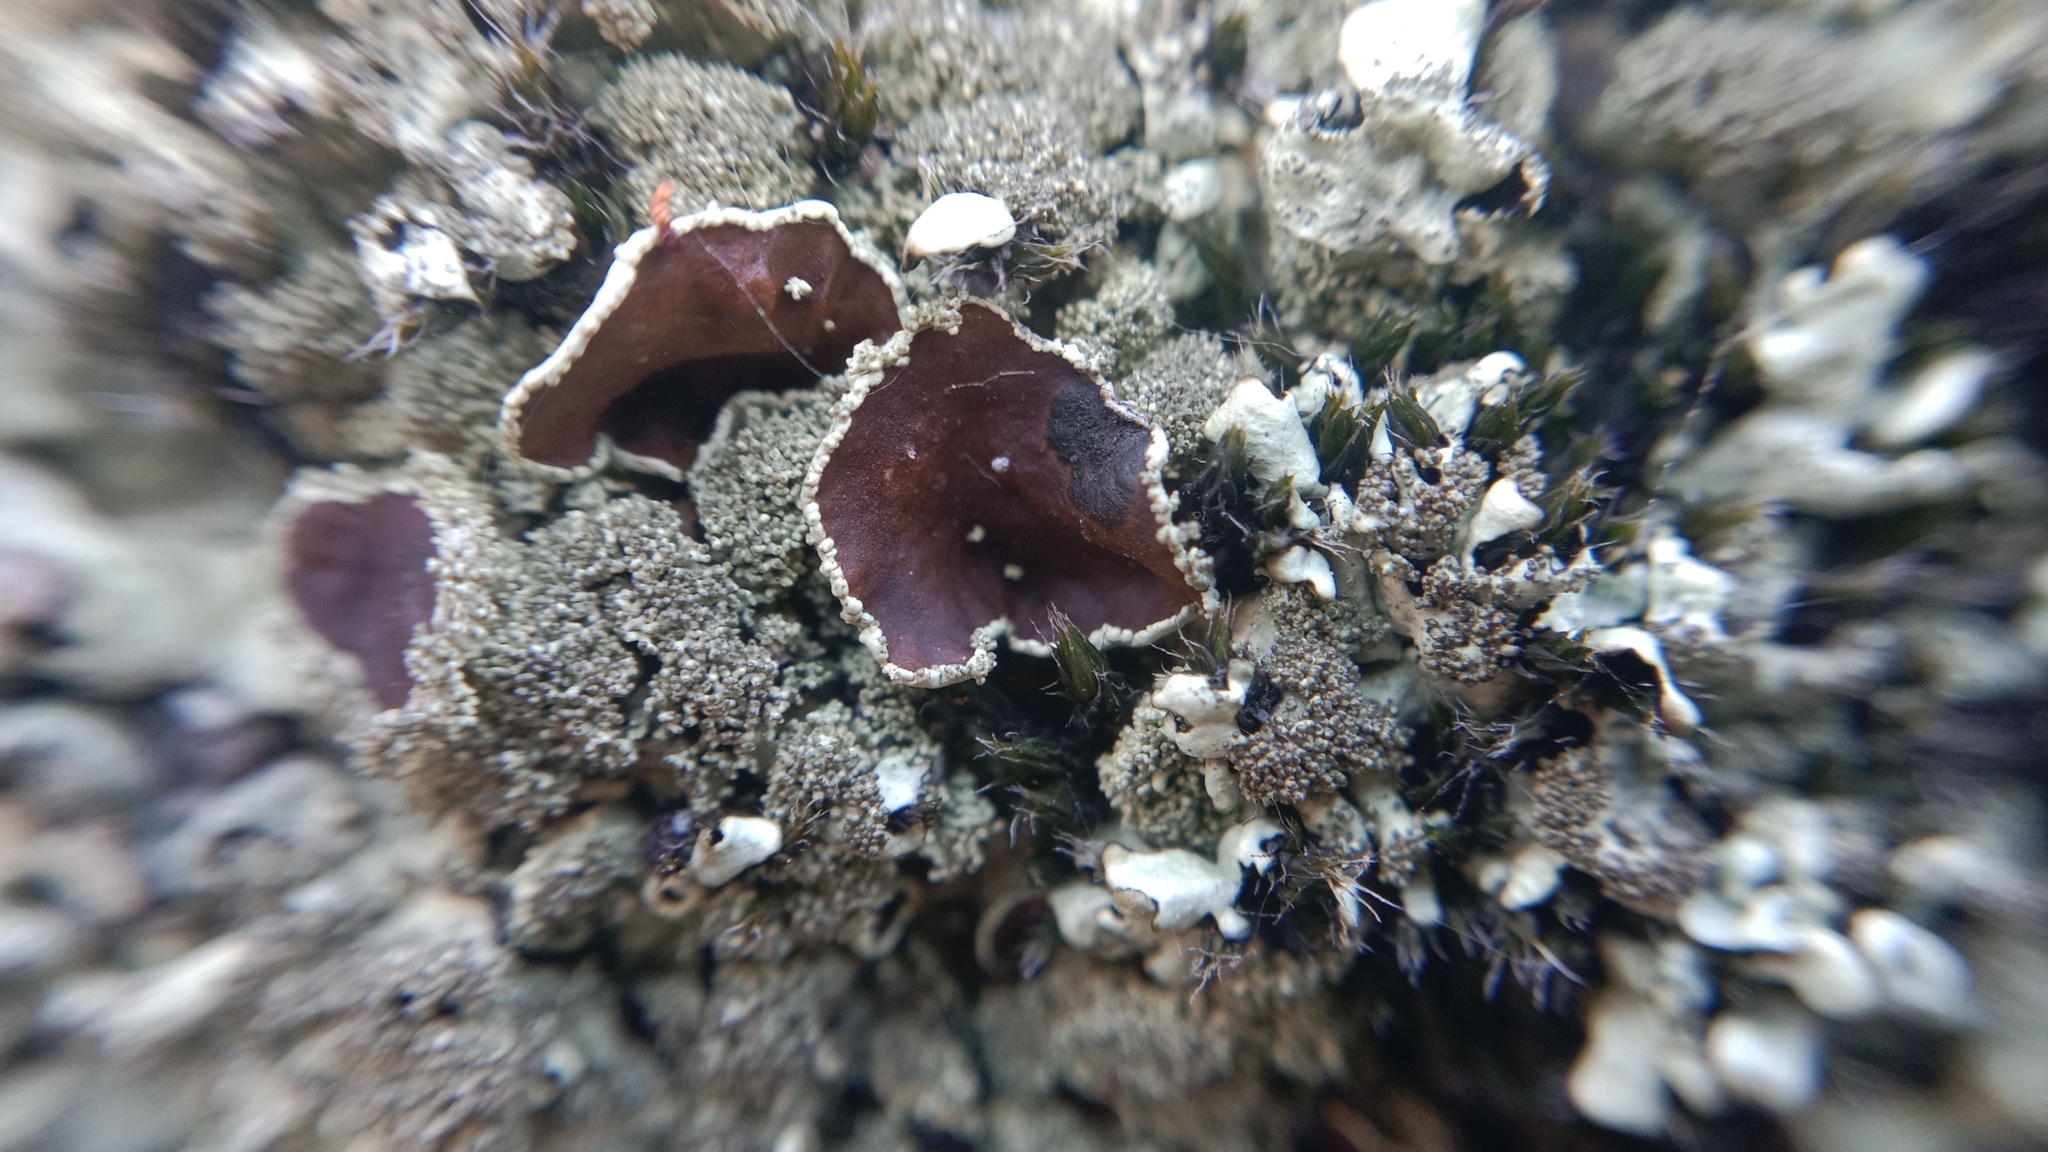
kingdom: Fungi
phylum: Ascomycota
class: Lecanoromycetes
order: Lecanorales
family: Parmeliaceae
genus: Xanthoparmelia
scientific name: Xanthoparmelia conspersa
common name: Peppered rock shield
